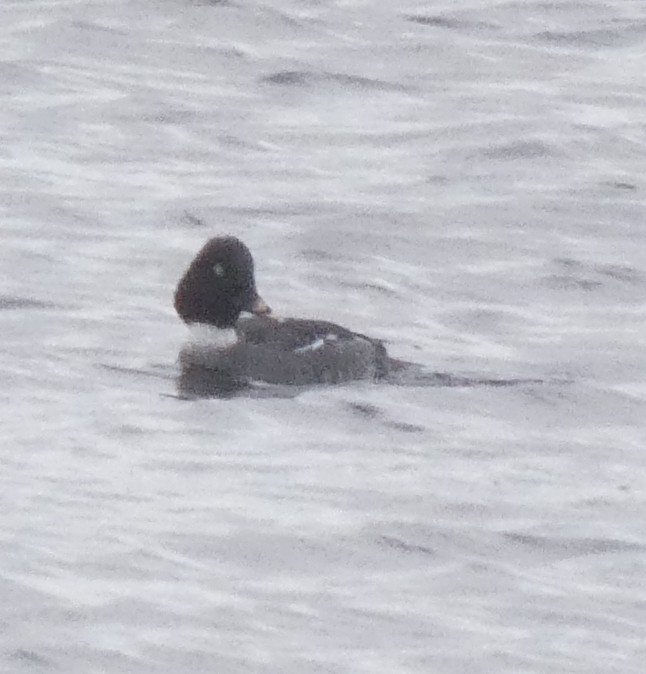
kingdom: Animalia
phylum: Chordata
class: Aves
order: Anseriformes
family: Anatidae
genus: Bucephala
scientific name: Bucephala clangula
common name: Common goldeneye
